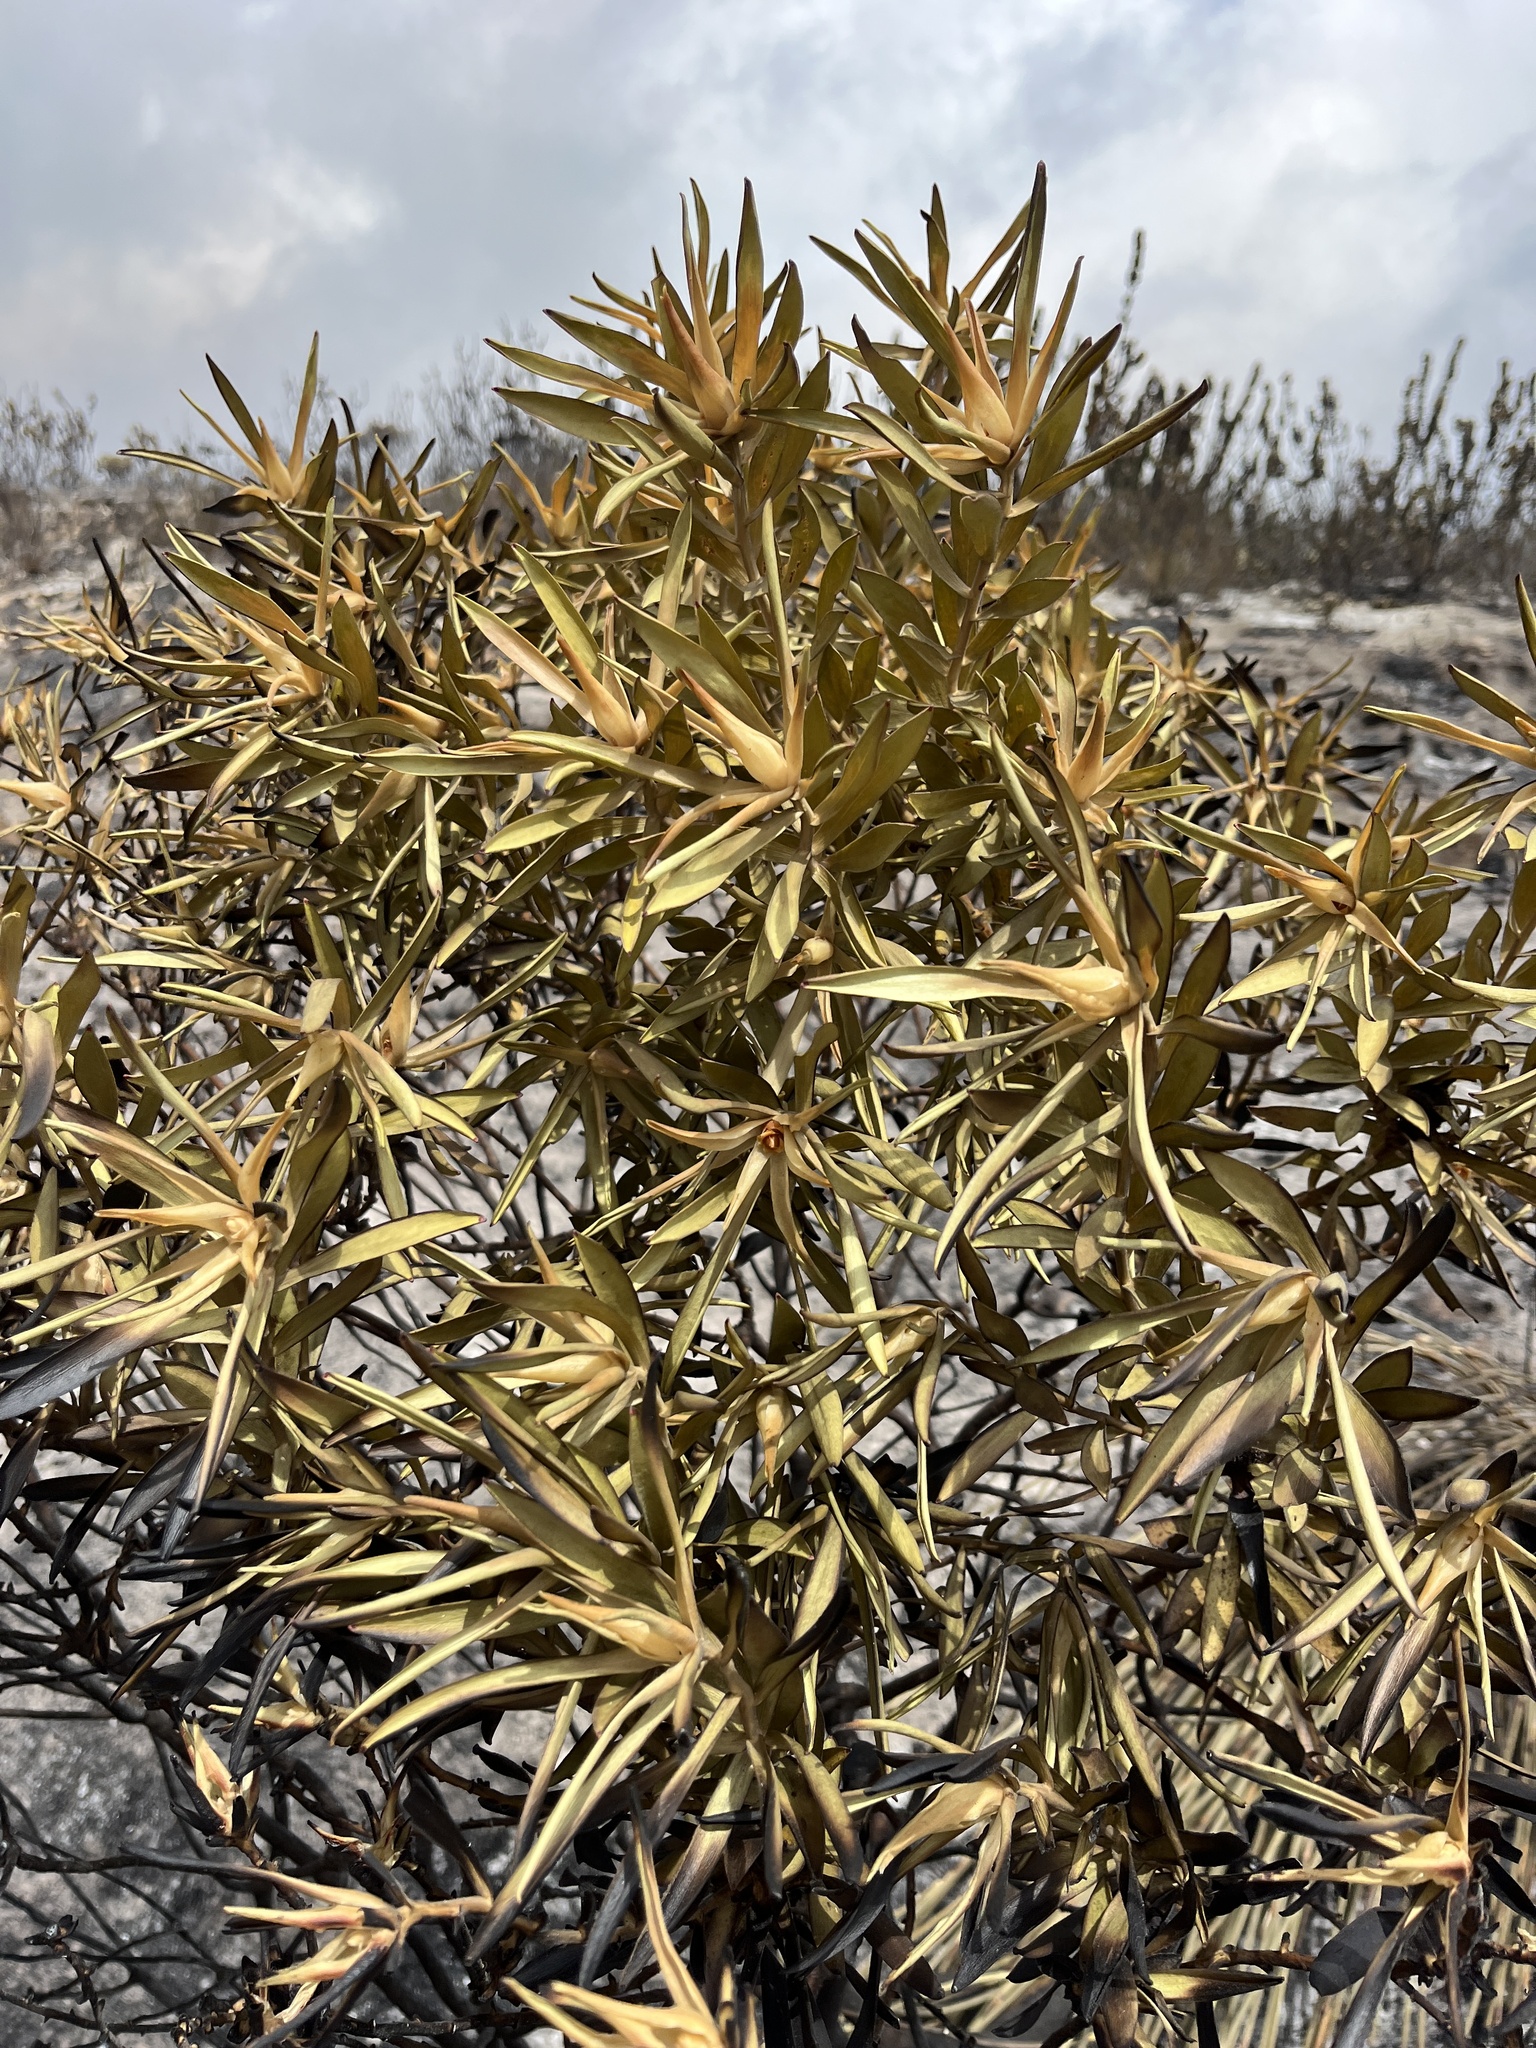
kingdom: Plantae
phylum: Tracheophyta
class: Magnoliopsida
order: Proteales
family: Proteaceae
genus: Leucadendron
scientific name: Leucadendron laureolum
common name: Golden sunshinebush
